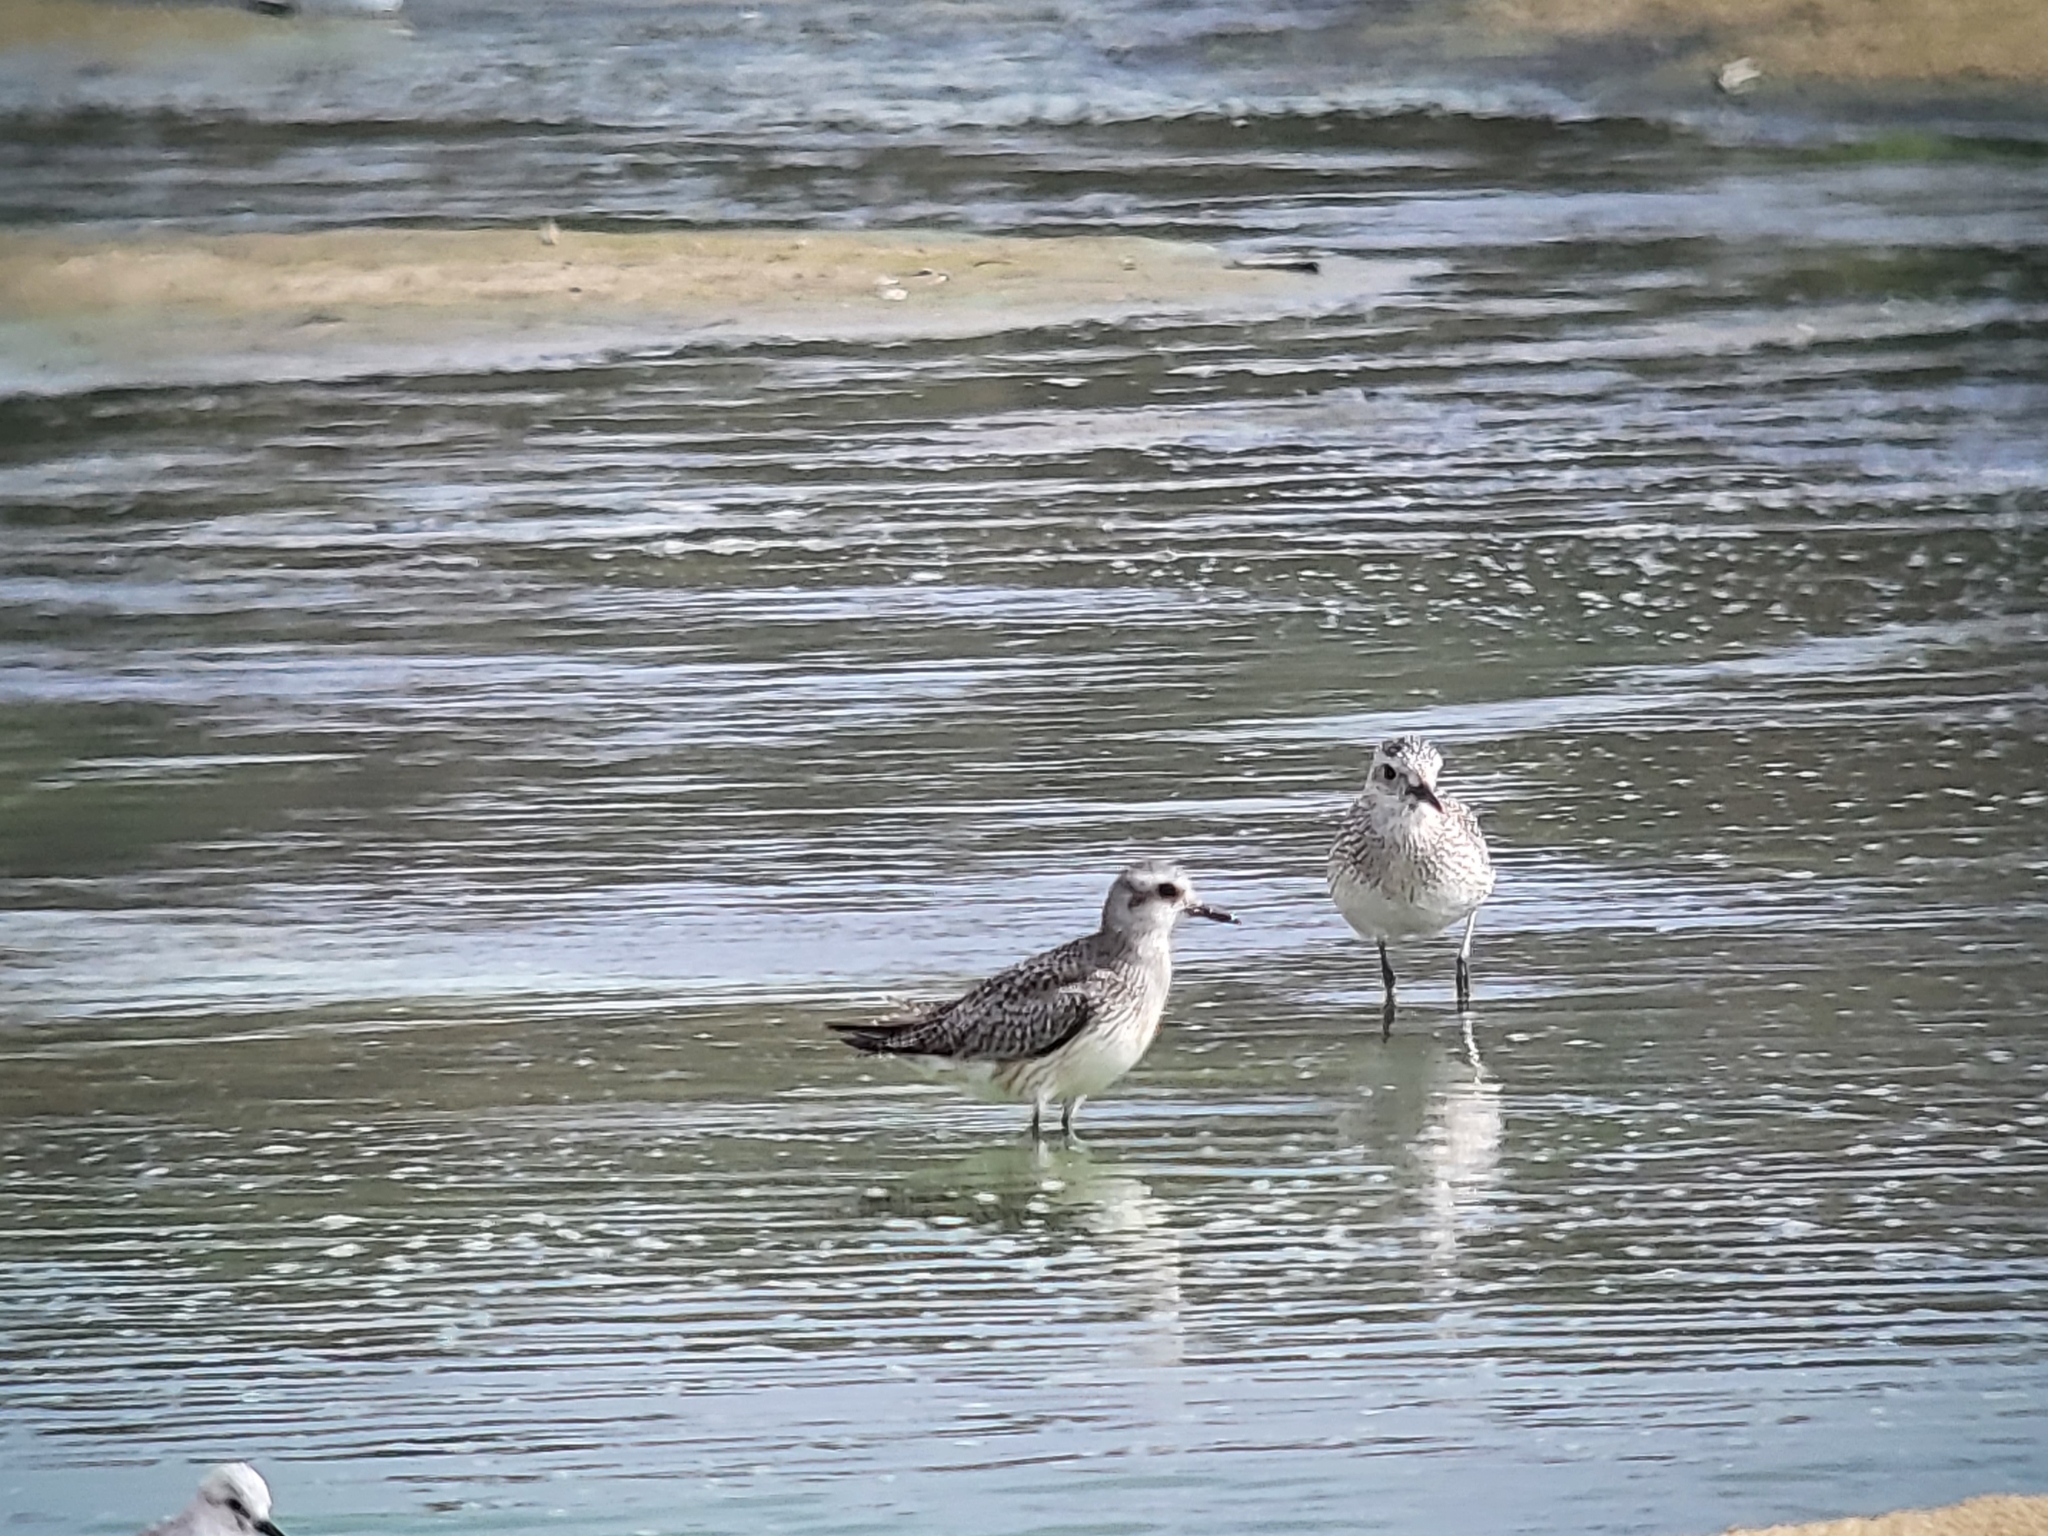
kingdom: Animalia
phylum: Chordata
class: Aves
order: Charadriiformes
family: Charadriidae
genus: Pluvialis
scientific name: Pluvialis squatarola
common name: Grey plover
